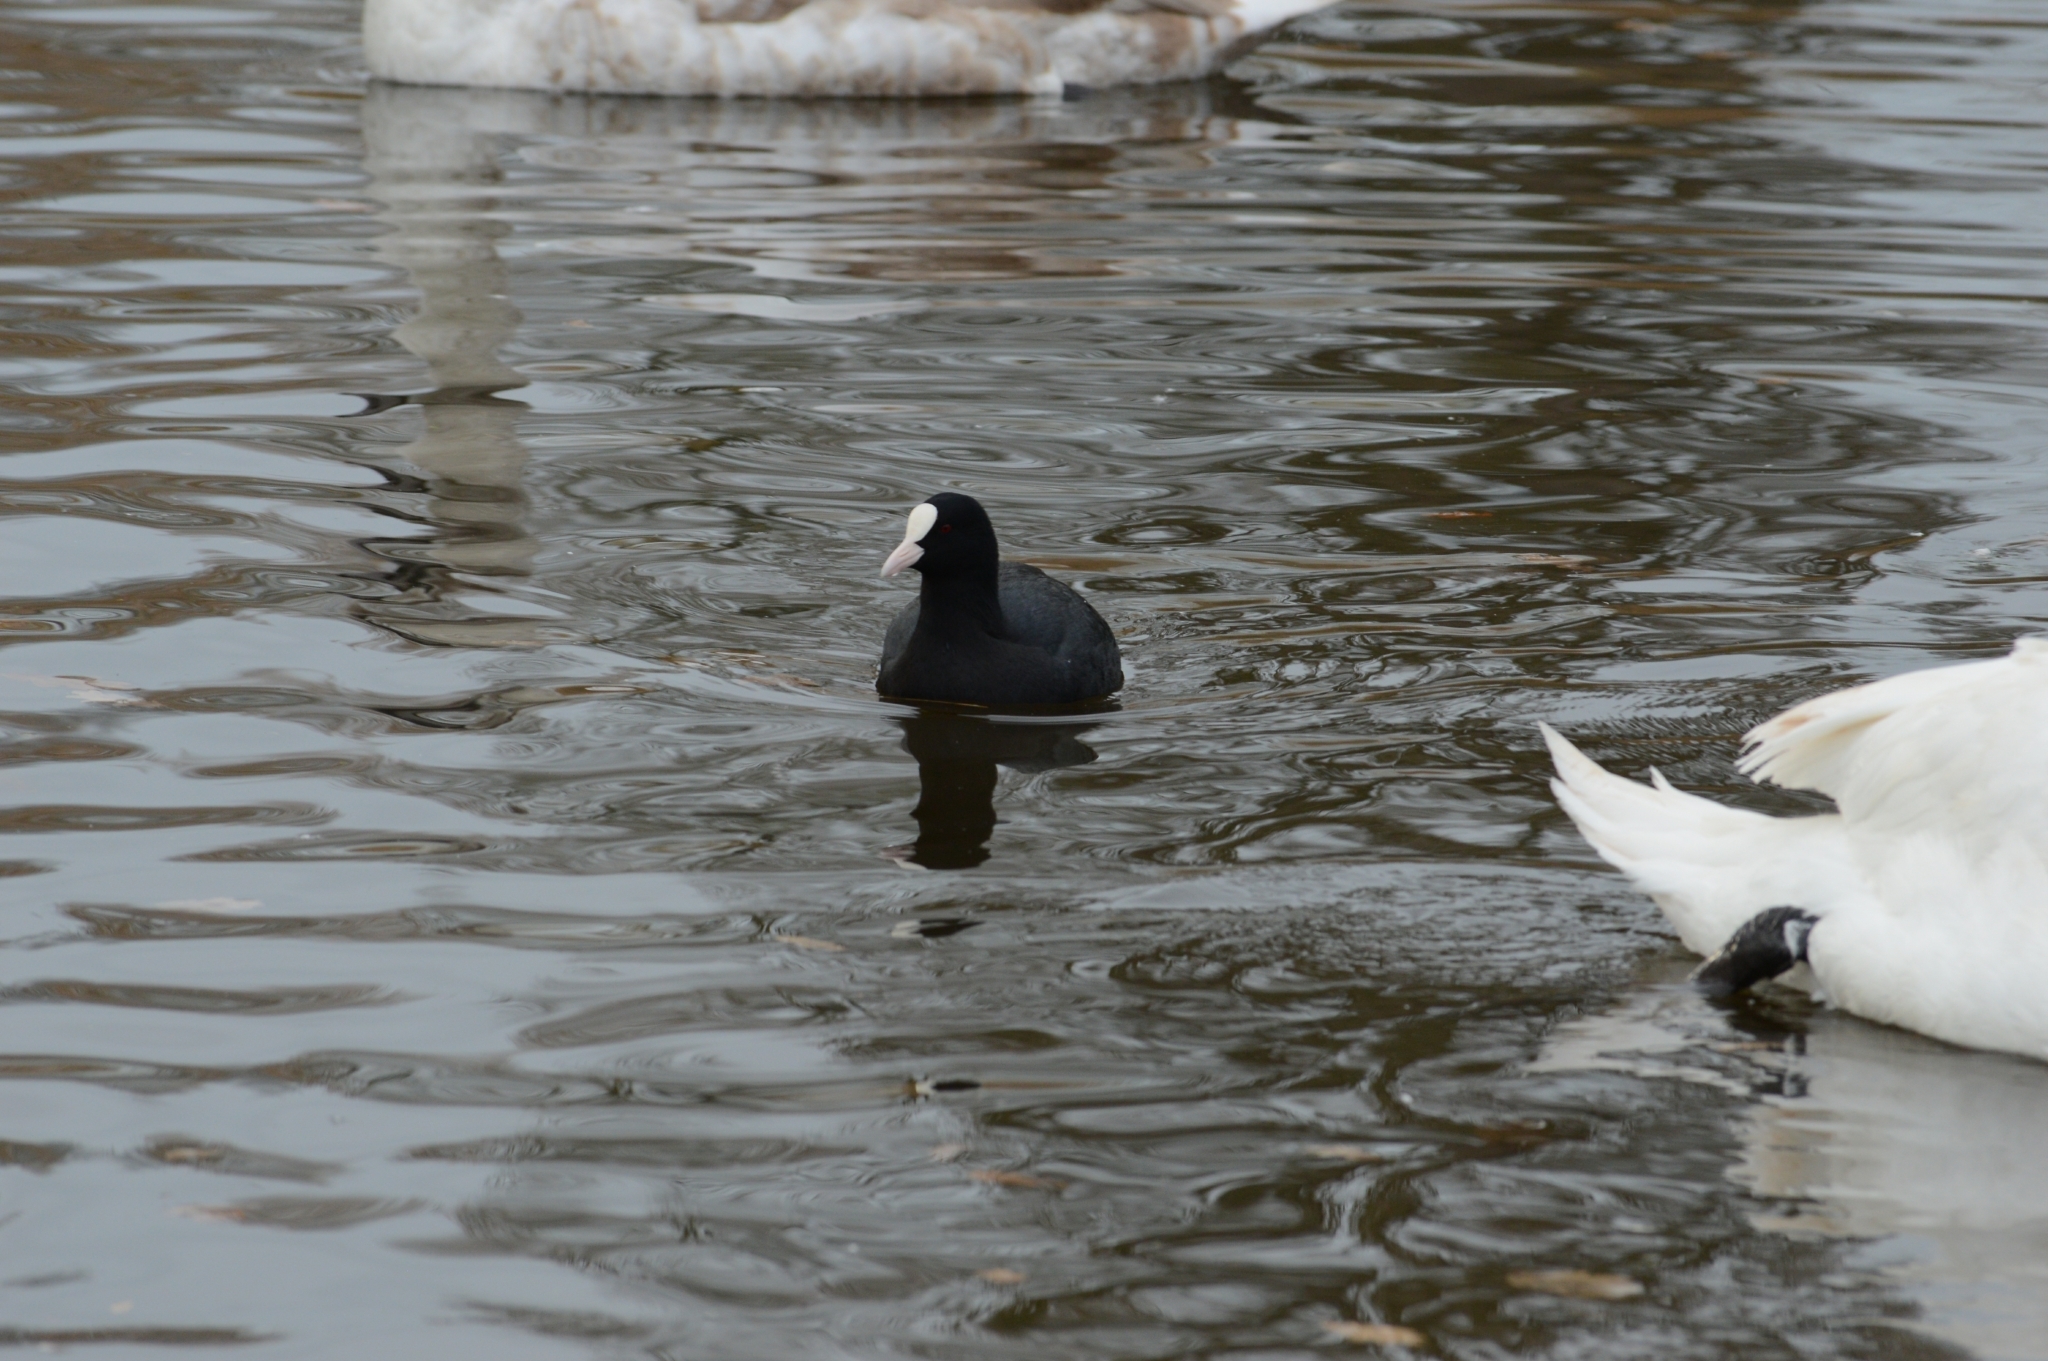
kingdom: Animalia
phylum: Chordata
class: Aves
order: Gruiformes
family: Rallidae
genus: Fulica
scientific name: Fulica atra
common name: Eurasian coot
